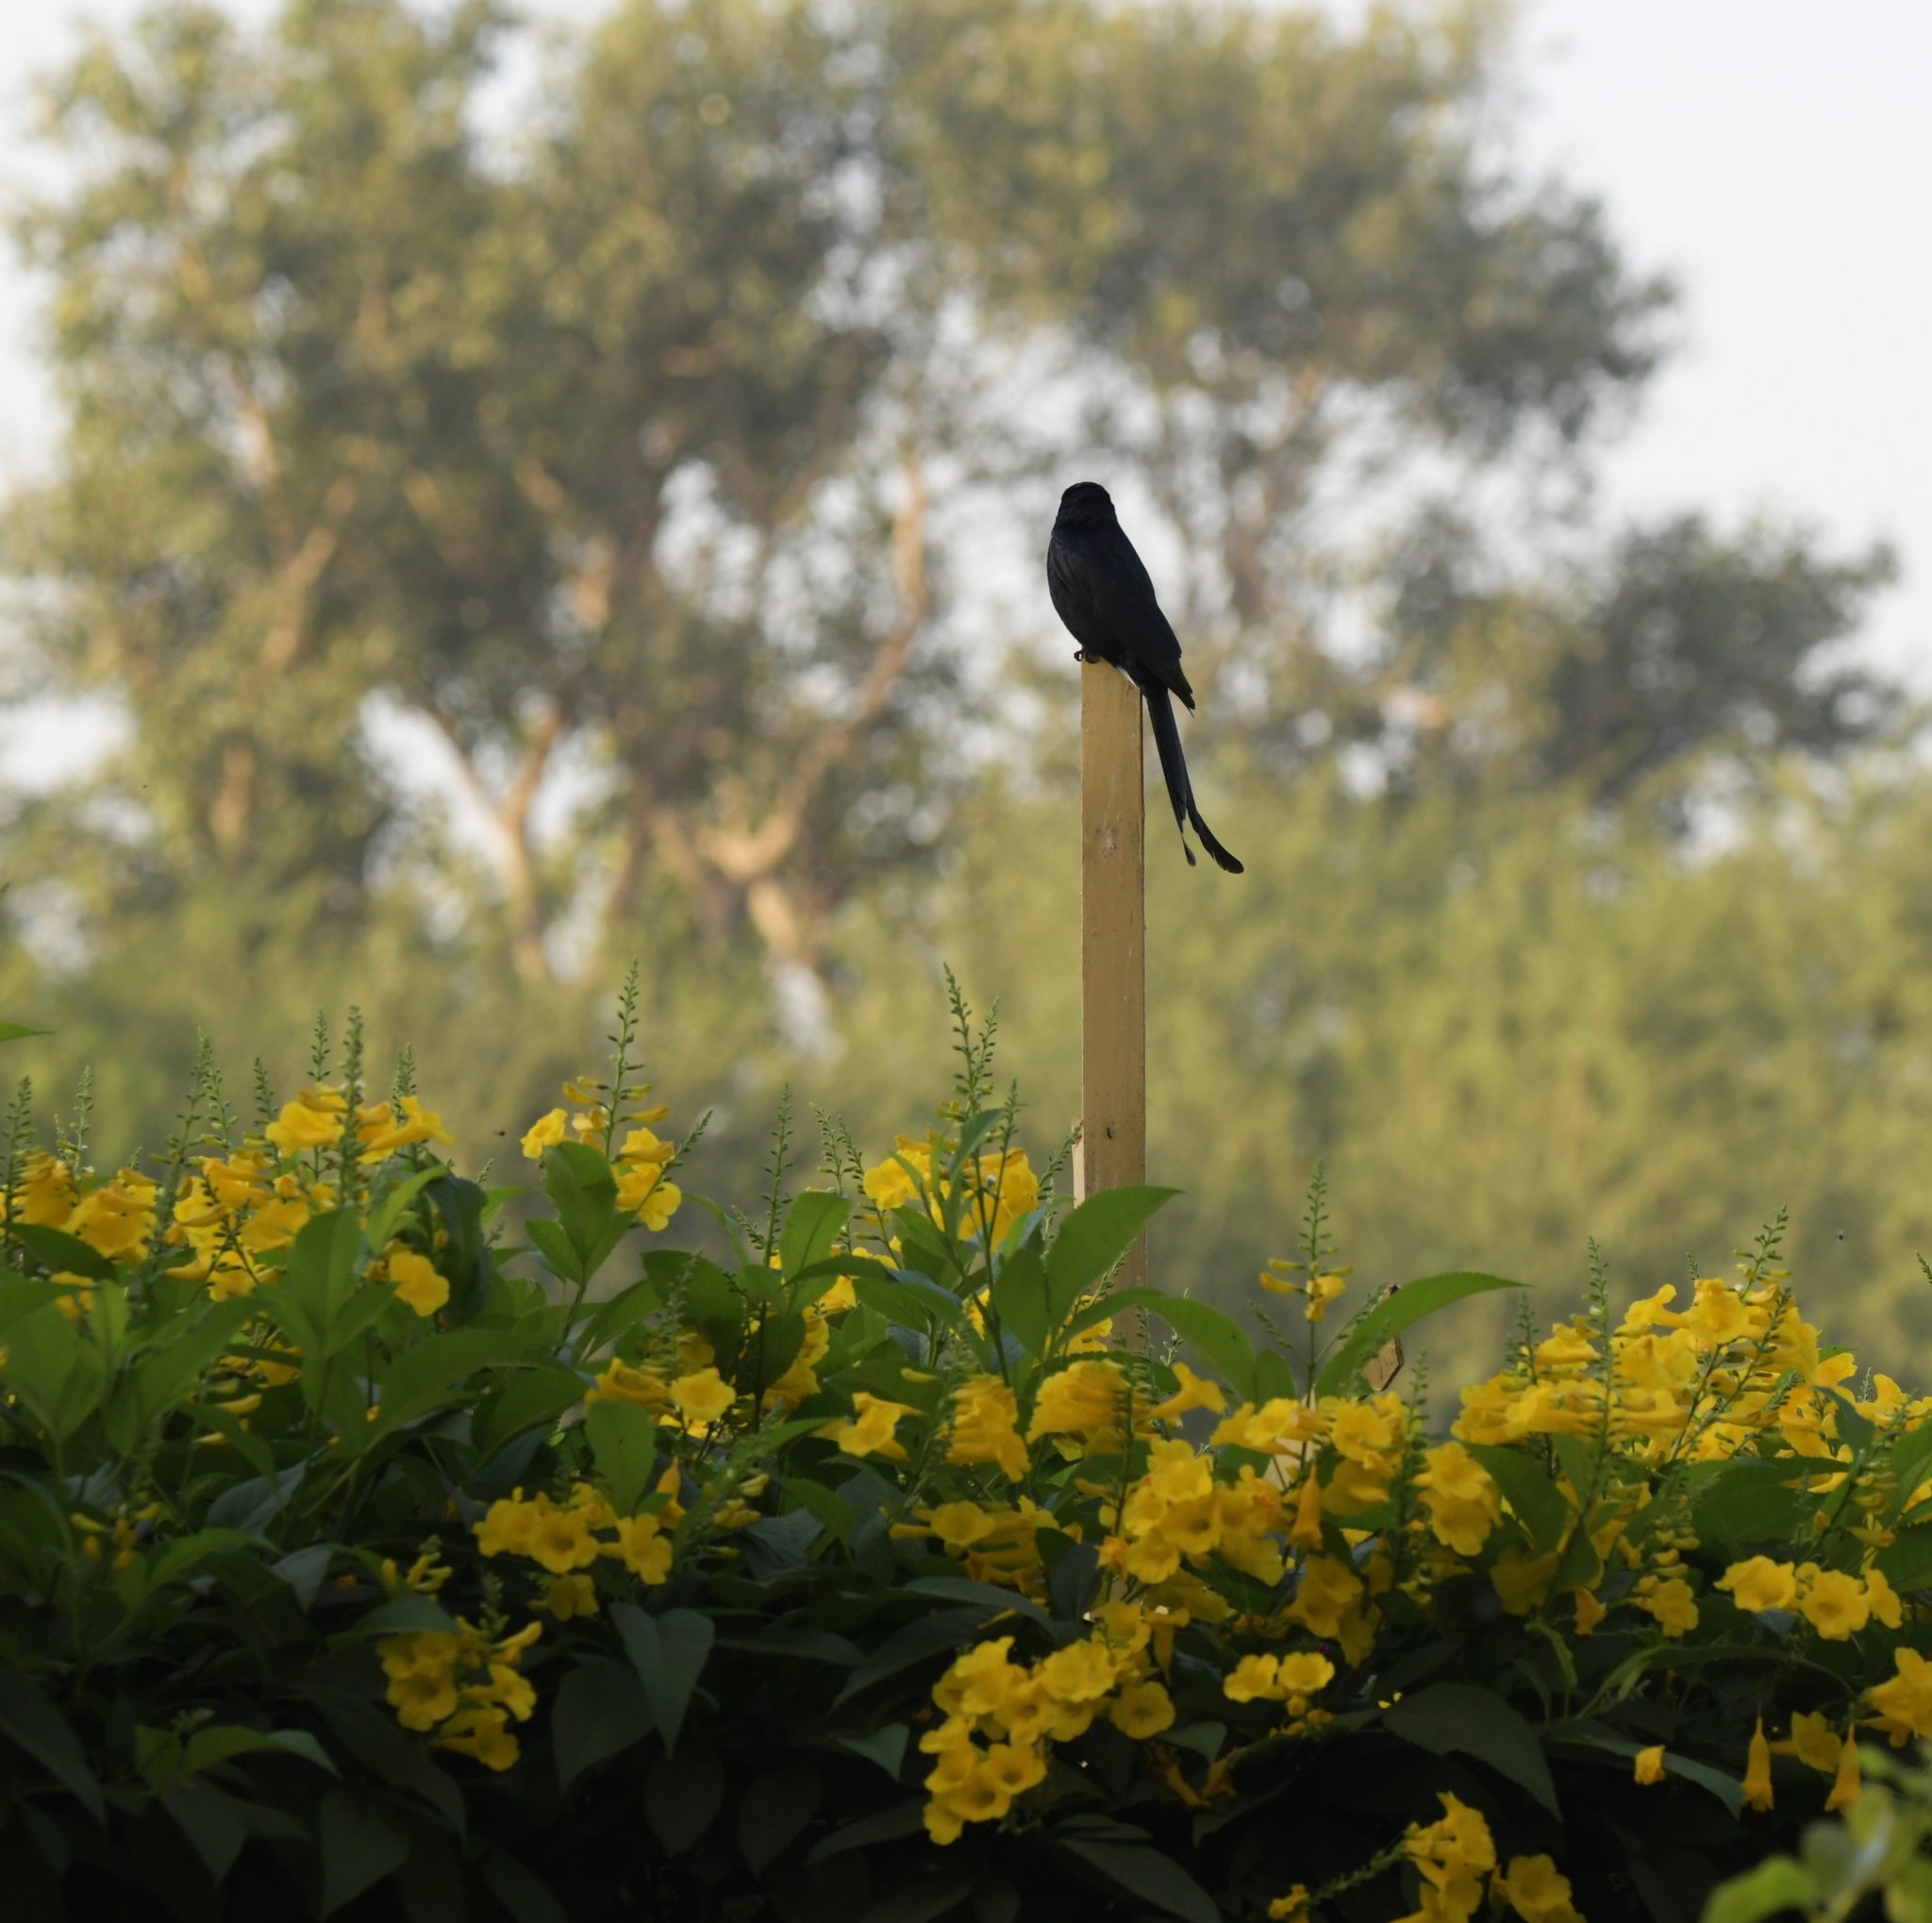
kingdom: Animalia
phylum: Chordata
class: Aves
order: Passeriformes
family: Dicruridae
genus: Dicrurus
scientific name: Dicrurus macrocercus
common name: Black drongo
